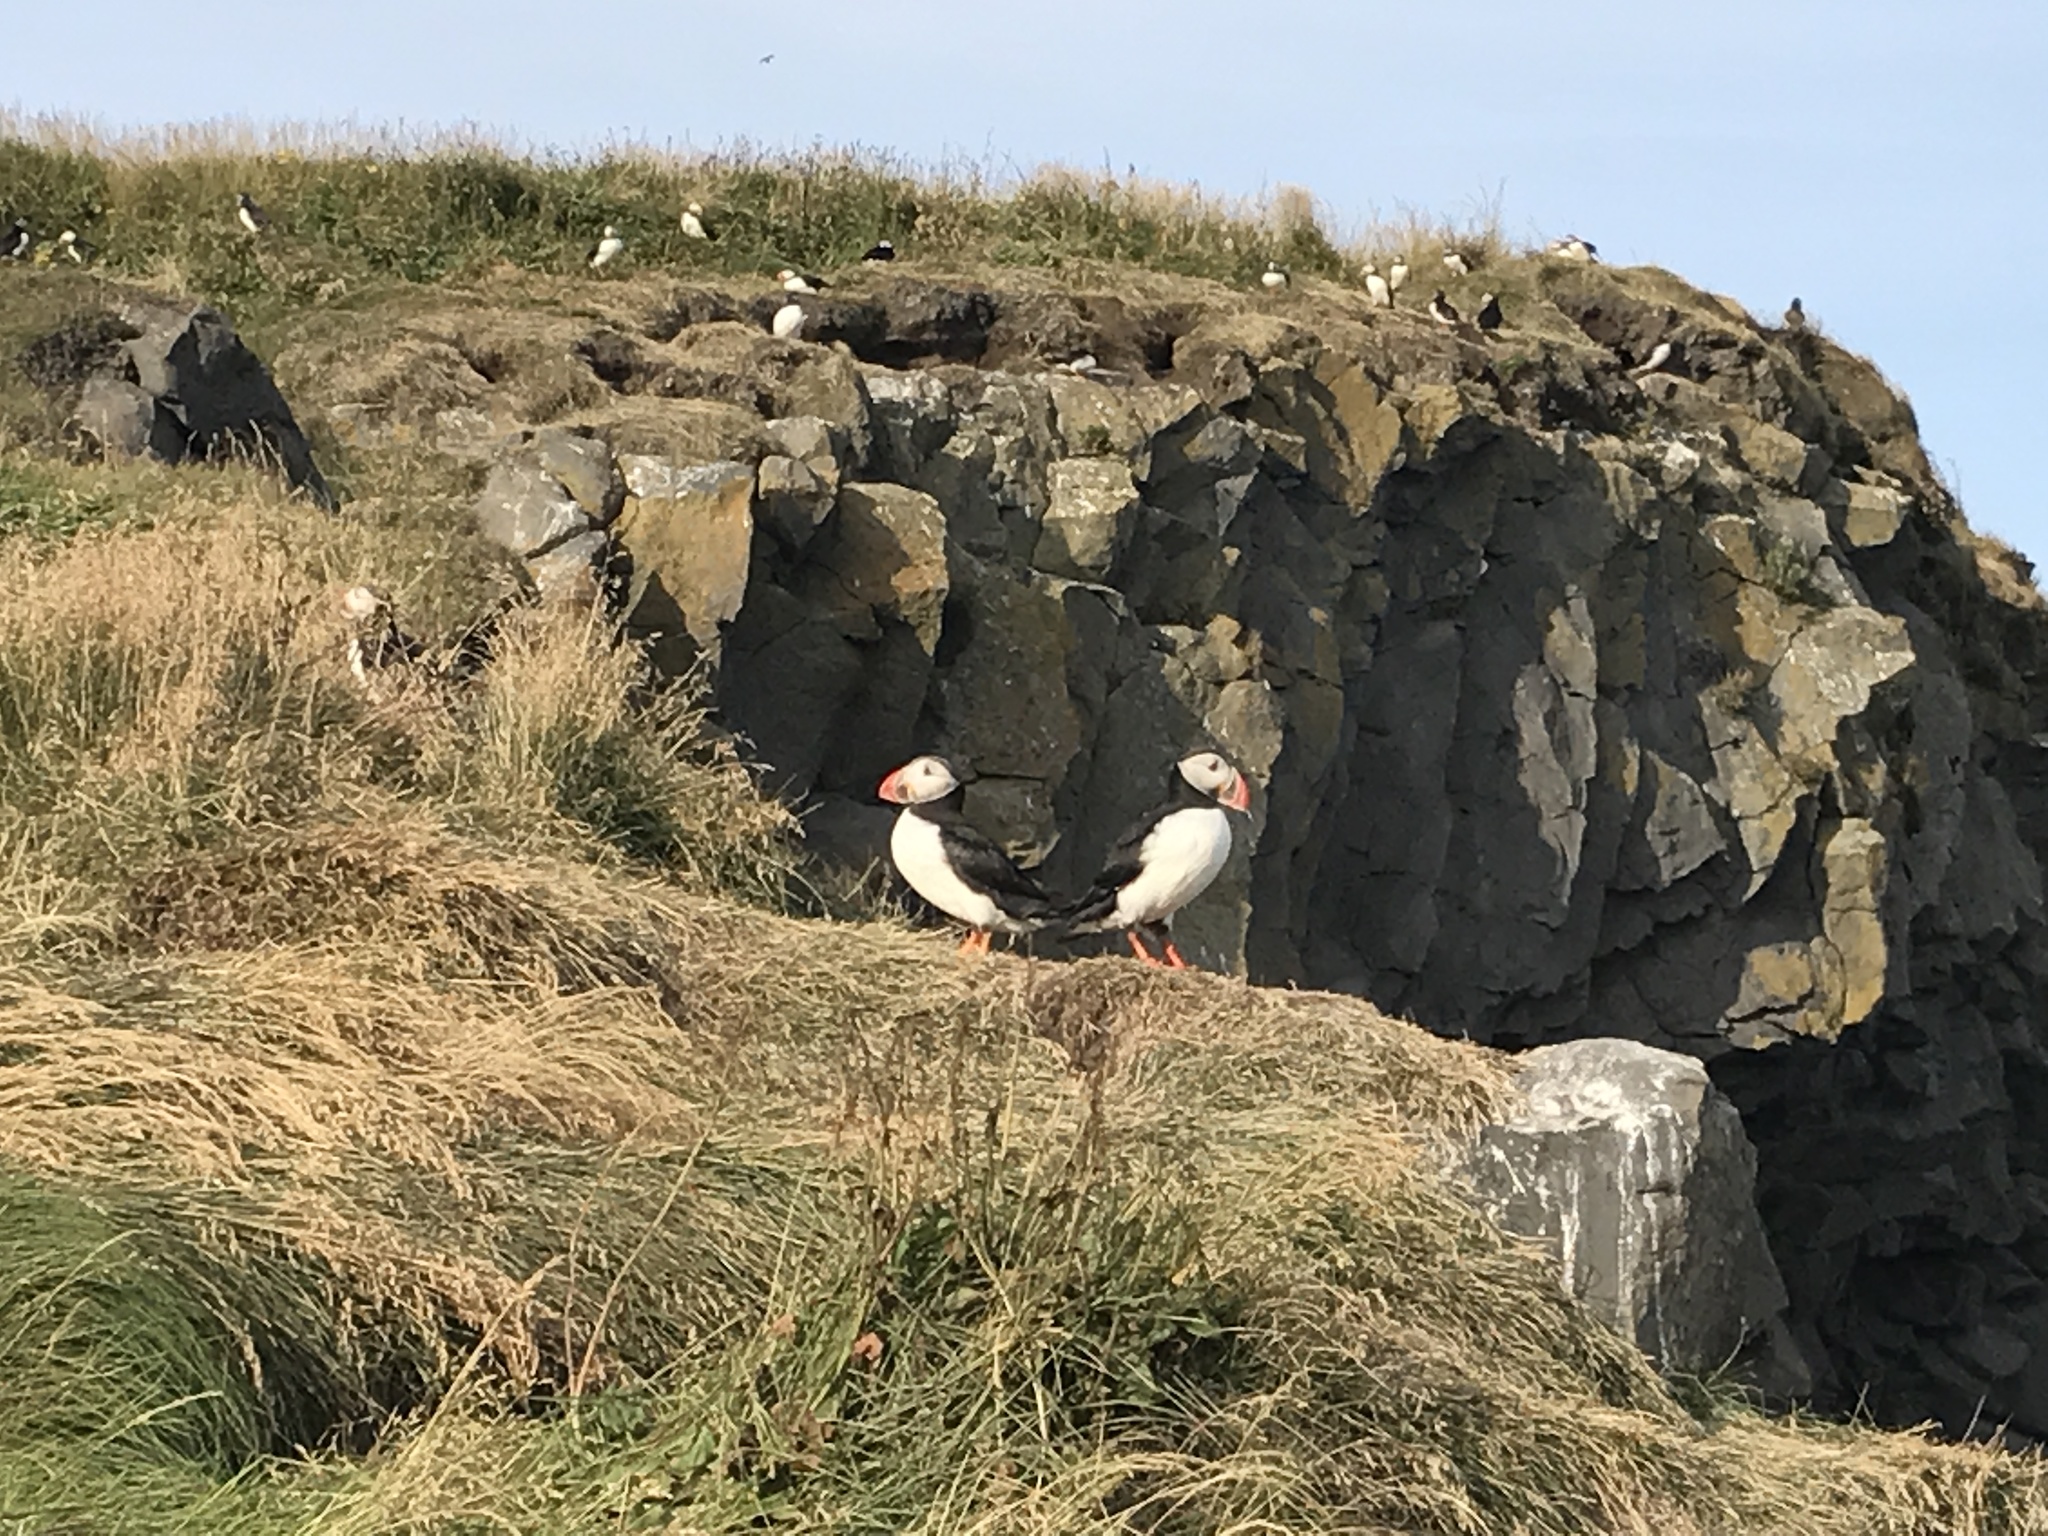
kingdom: Animalia
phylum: Chordata
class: Aves
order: Charadriiformes
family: Alcidae
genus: Fratercula
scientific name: Fratercula arctica
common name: Atlantic puffin
